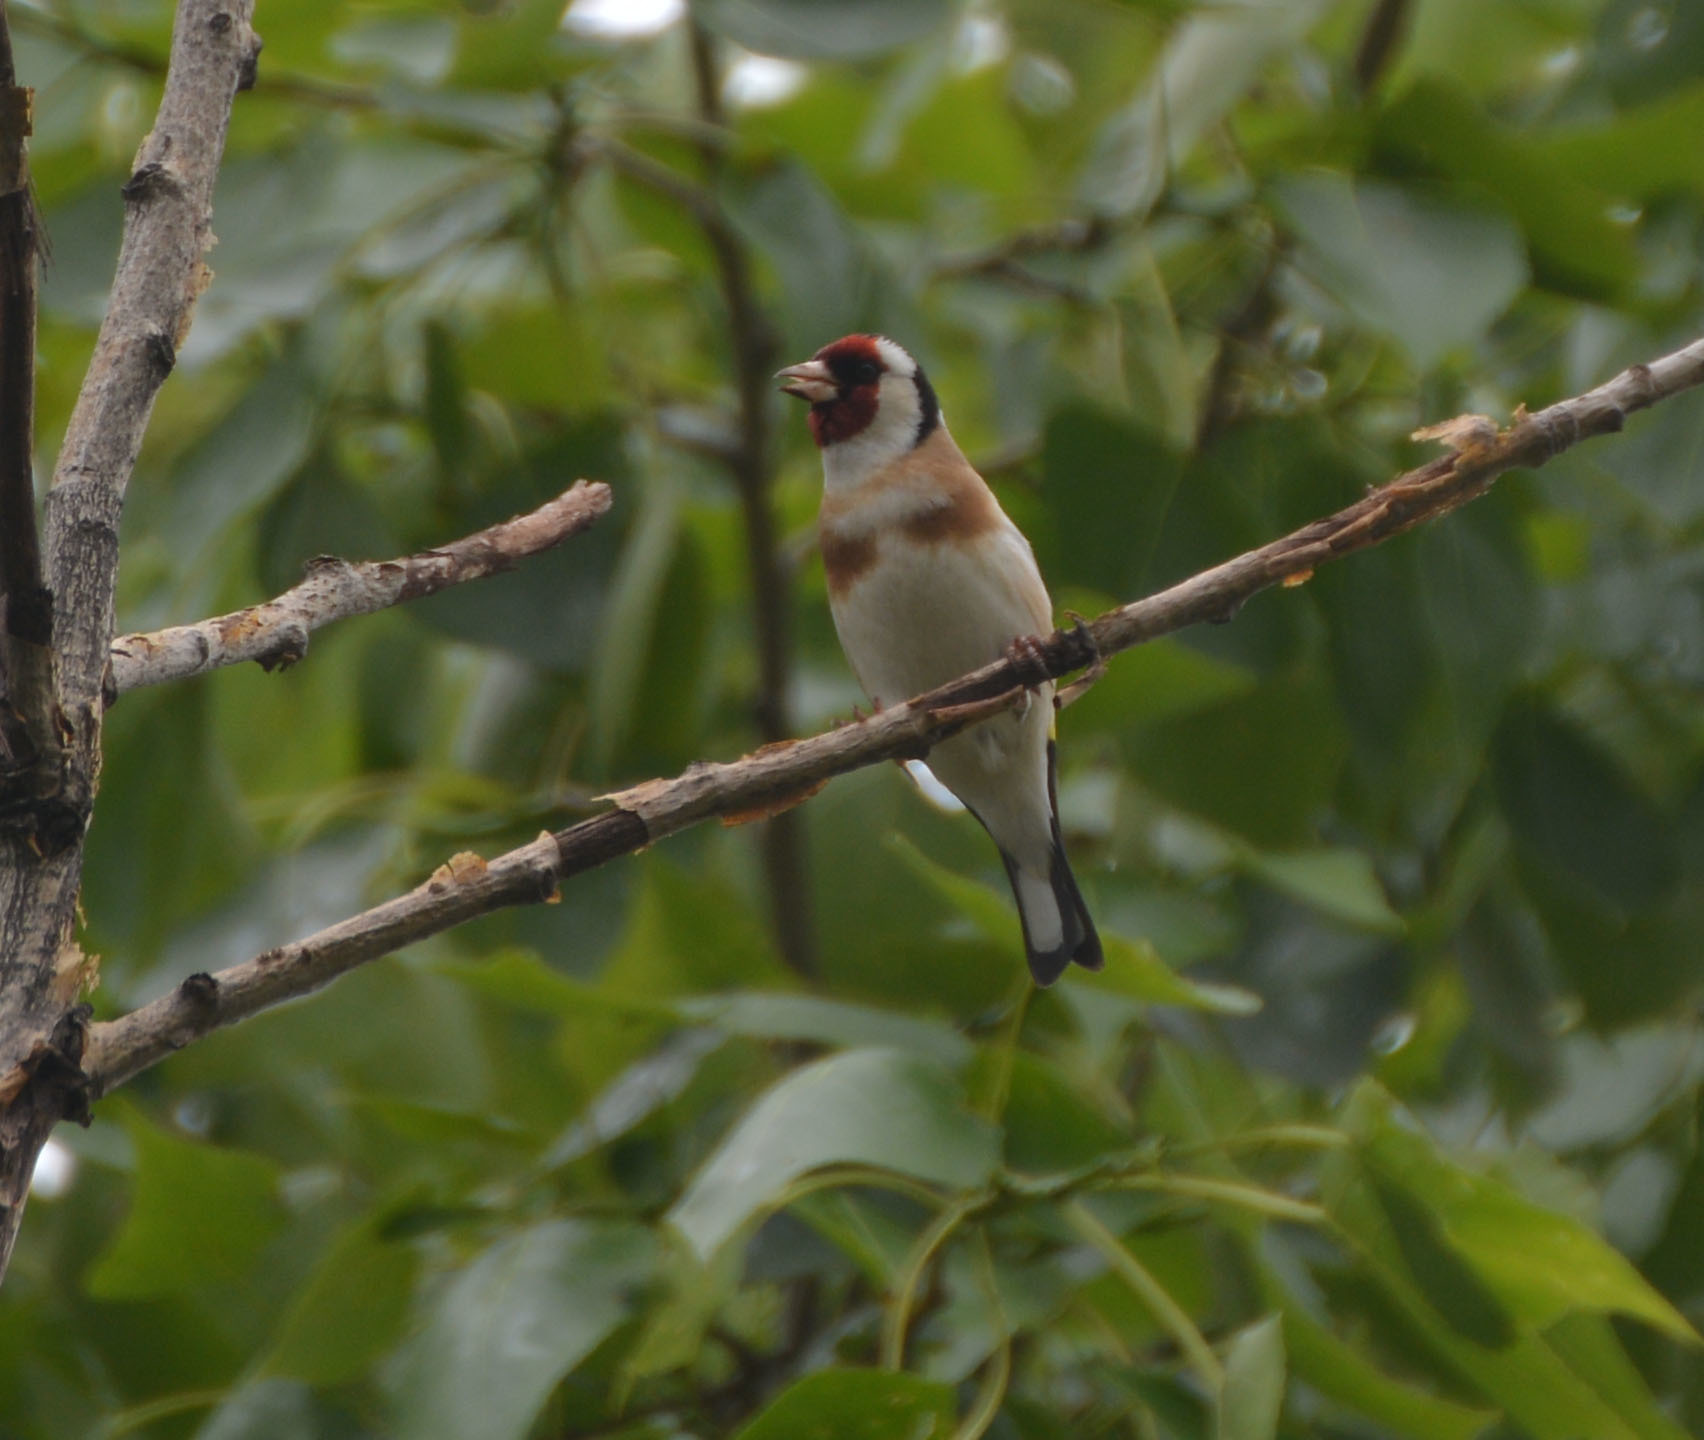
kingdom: Animalia
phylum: Chordata
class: Aves
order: Passeriformes
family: Fringillidae
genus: Carduelis
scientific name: Carduelis carduelis
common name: European goldfinch
